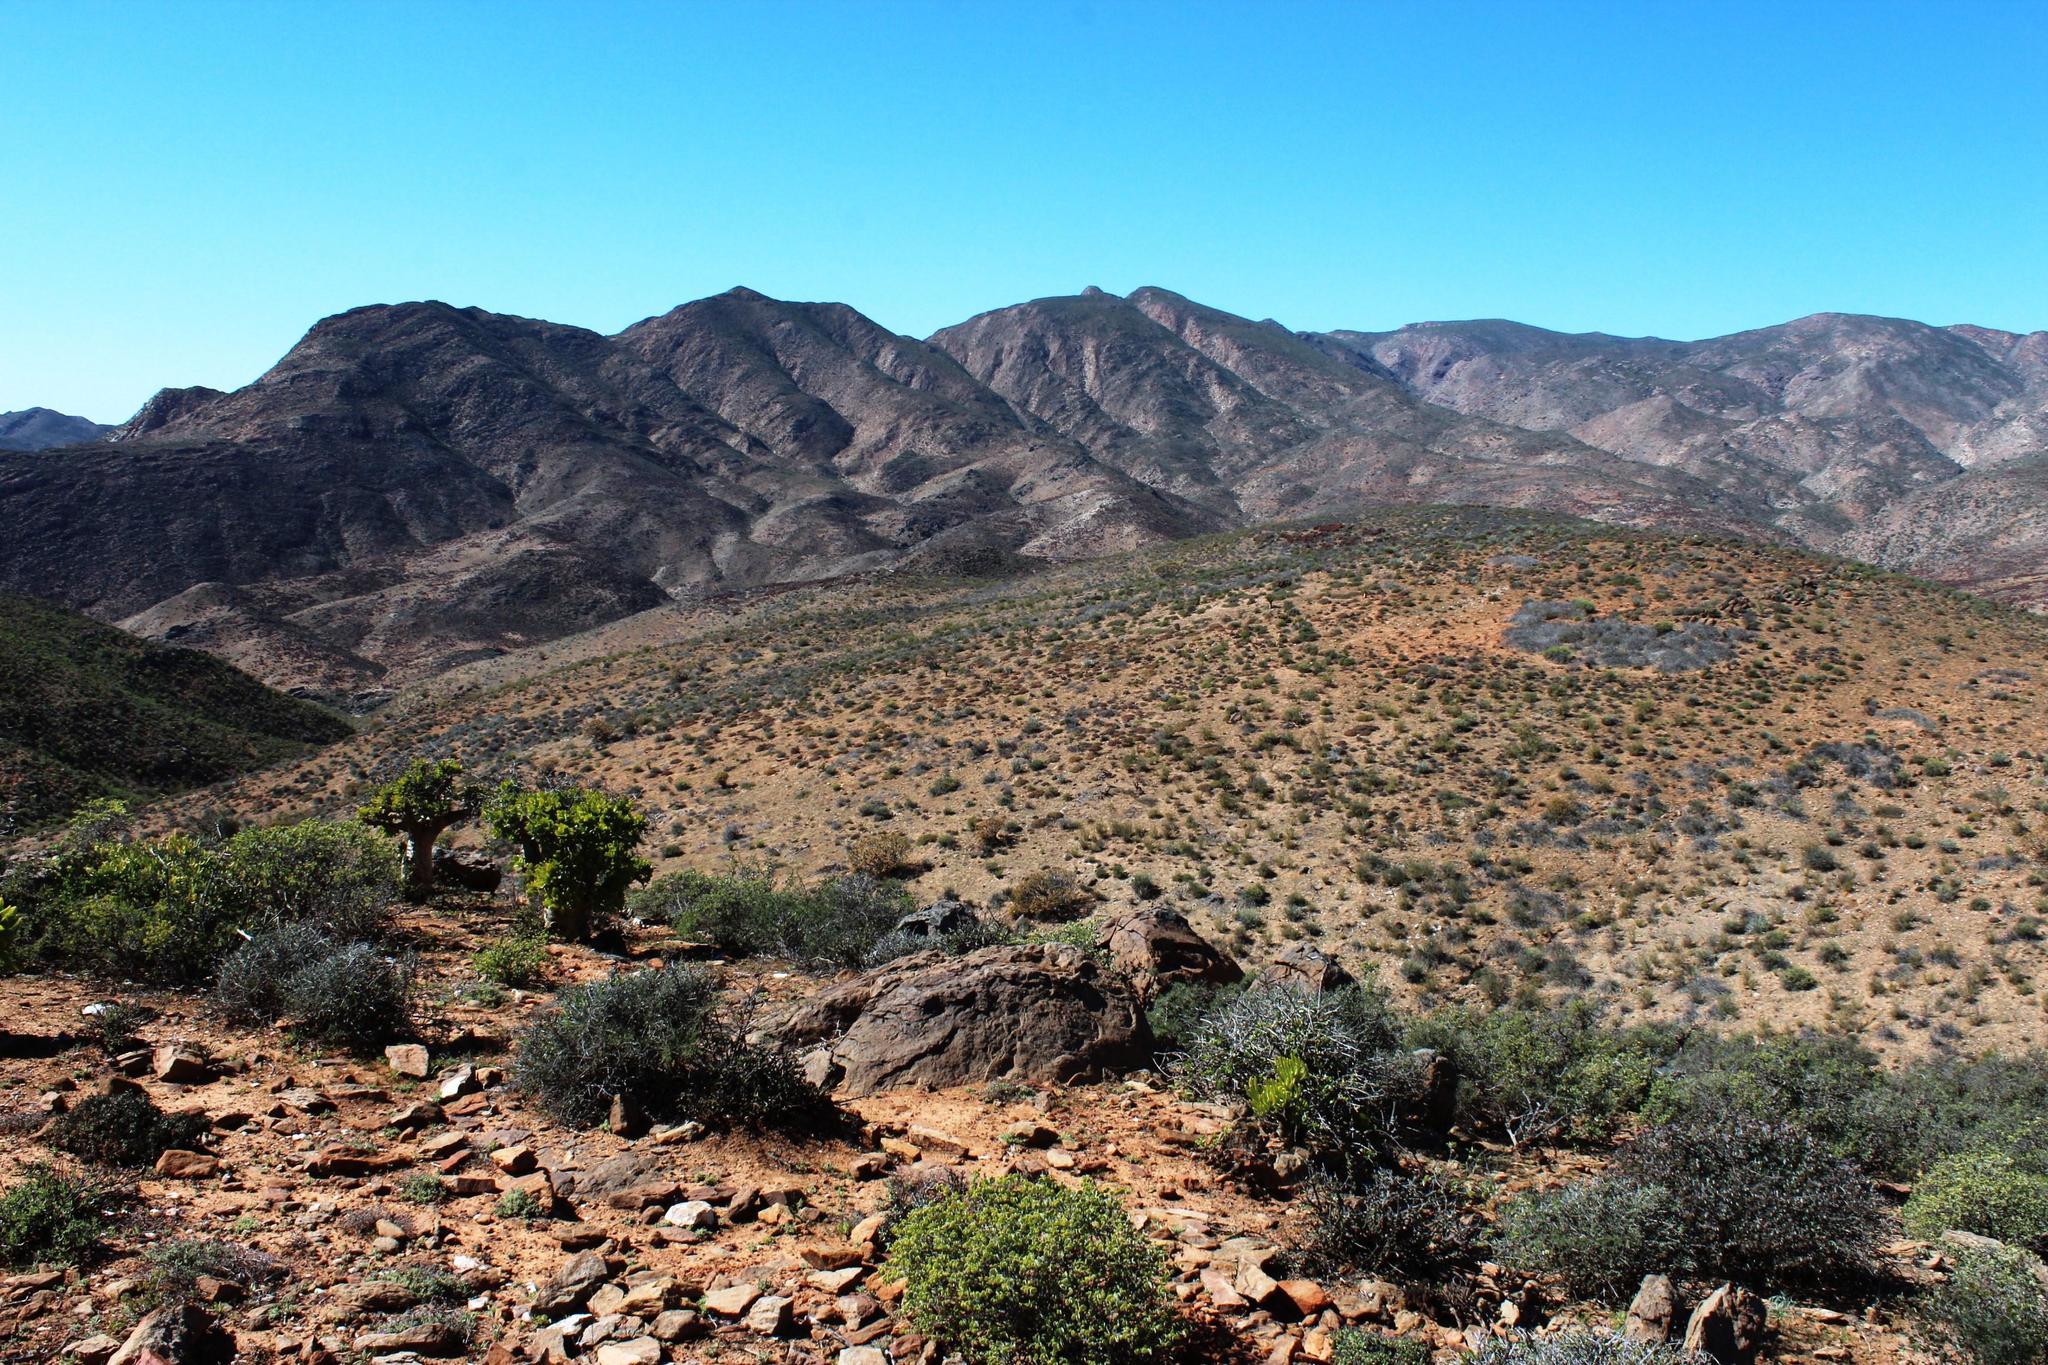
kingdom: Plantae
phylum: Tracheophyta
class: Liliopsida
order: Asparagales
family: Asphodelaceae
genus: Aloe
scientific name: Aloe pearsonii
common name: Pearson's aloe
